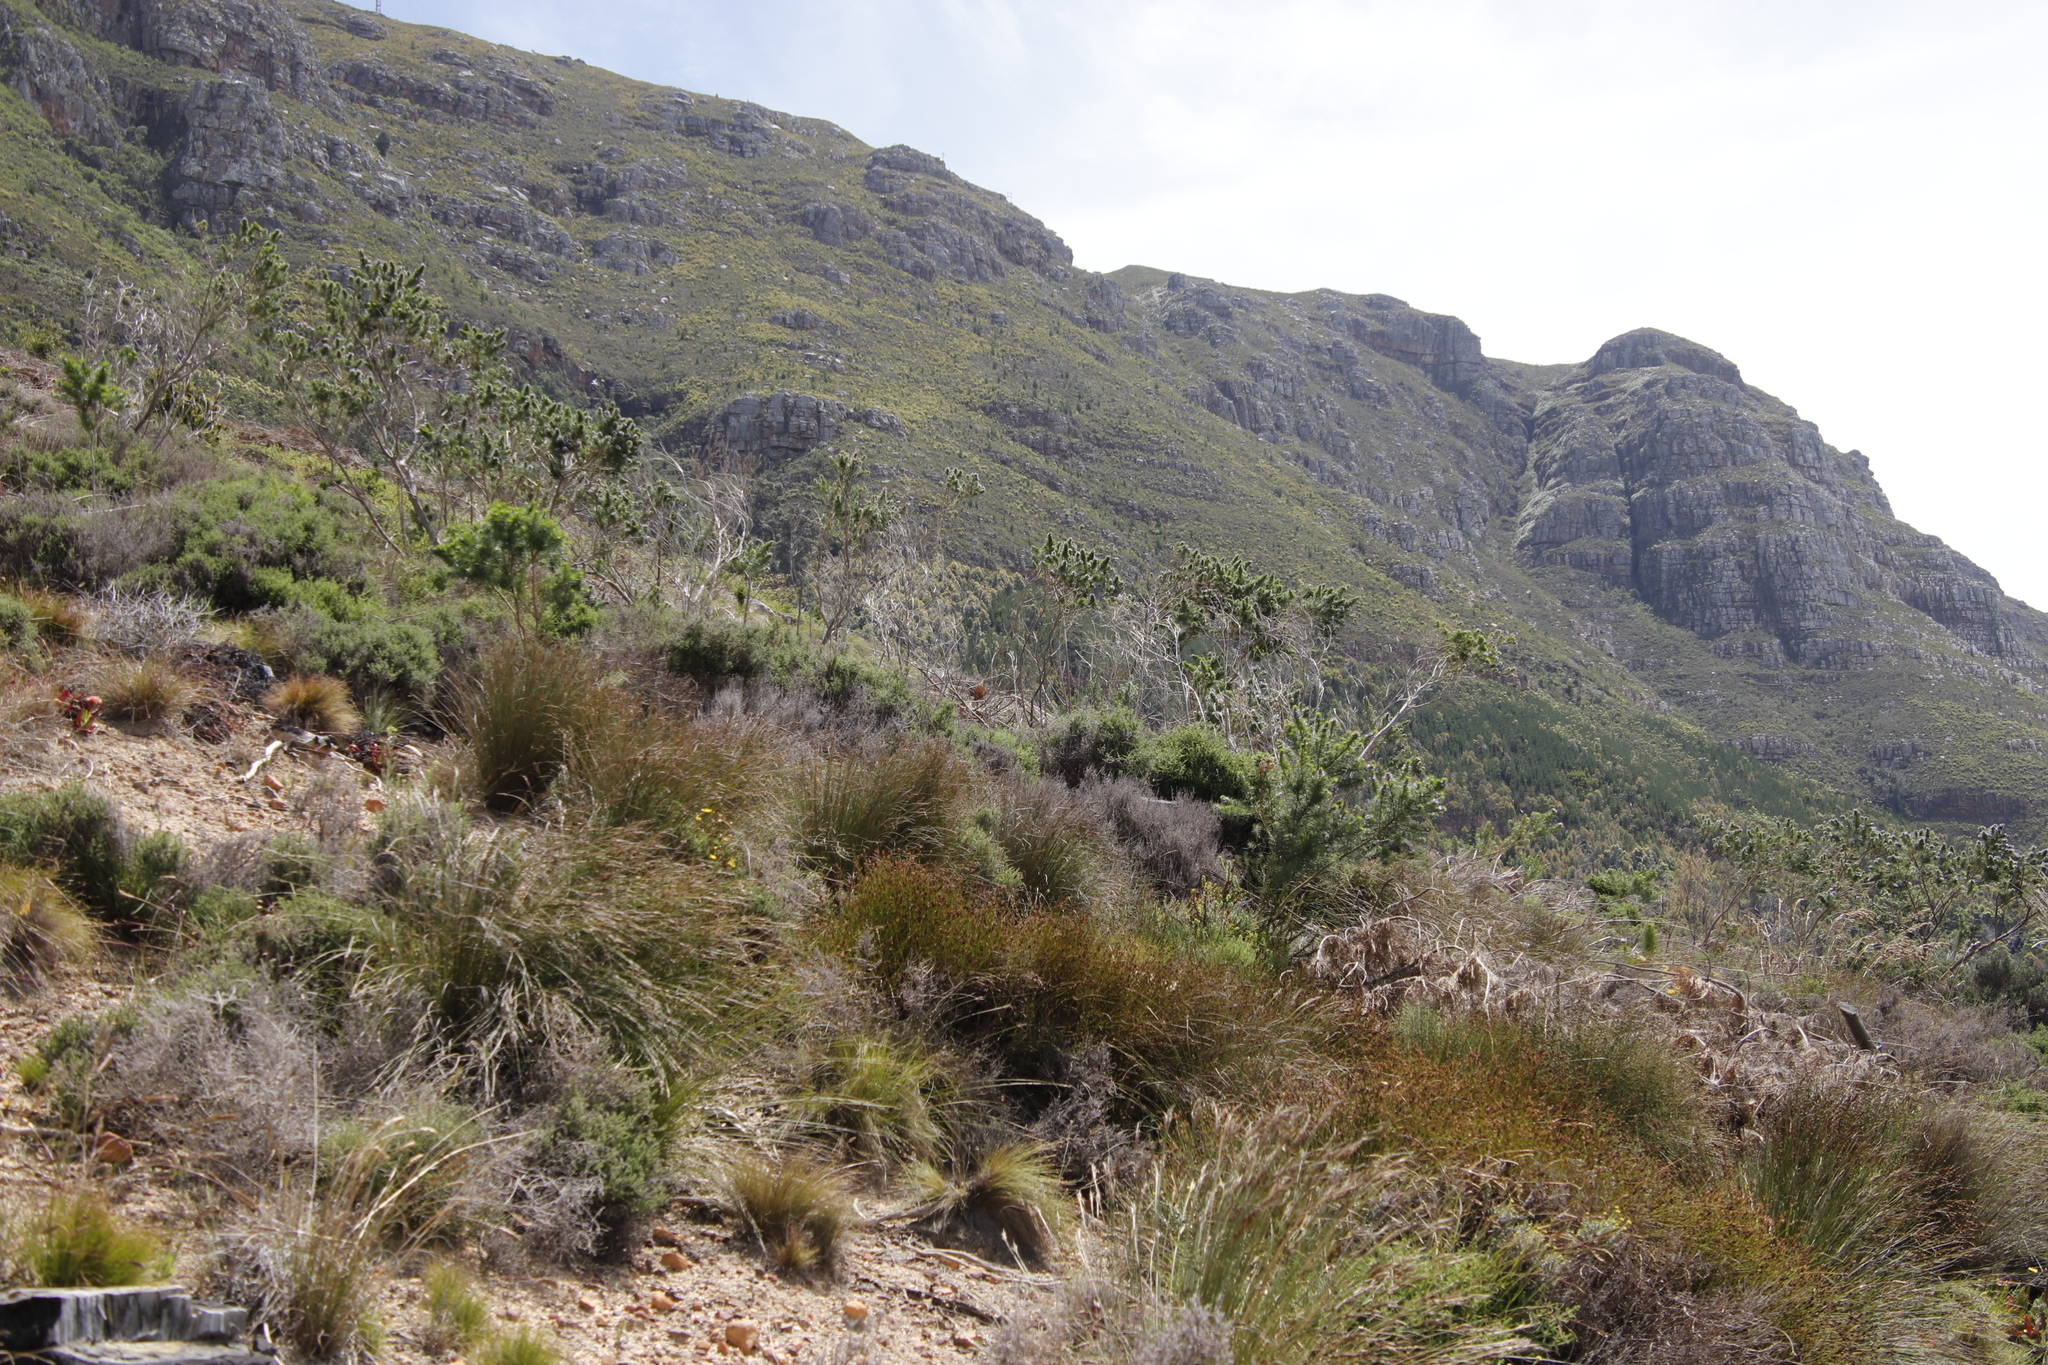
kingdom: Plantae
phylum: Tracheophyta
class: Magnoliopsida
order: Fabales
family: Fabaceae
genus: Psoralea
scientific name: Psoralea pinnata
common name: African scurfpea
